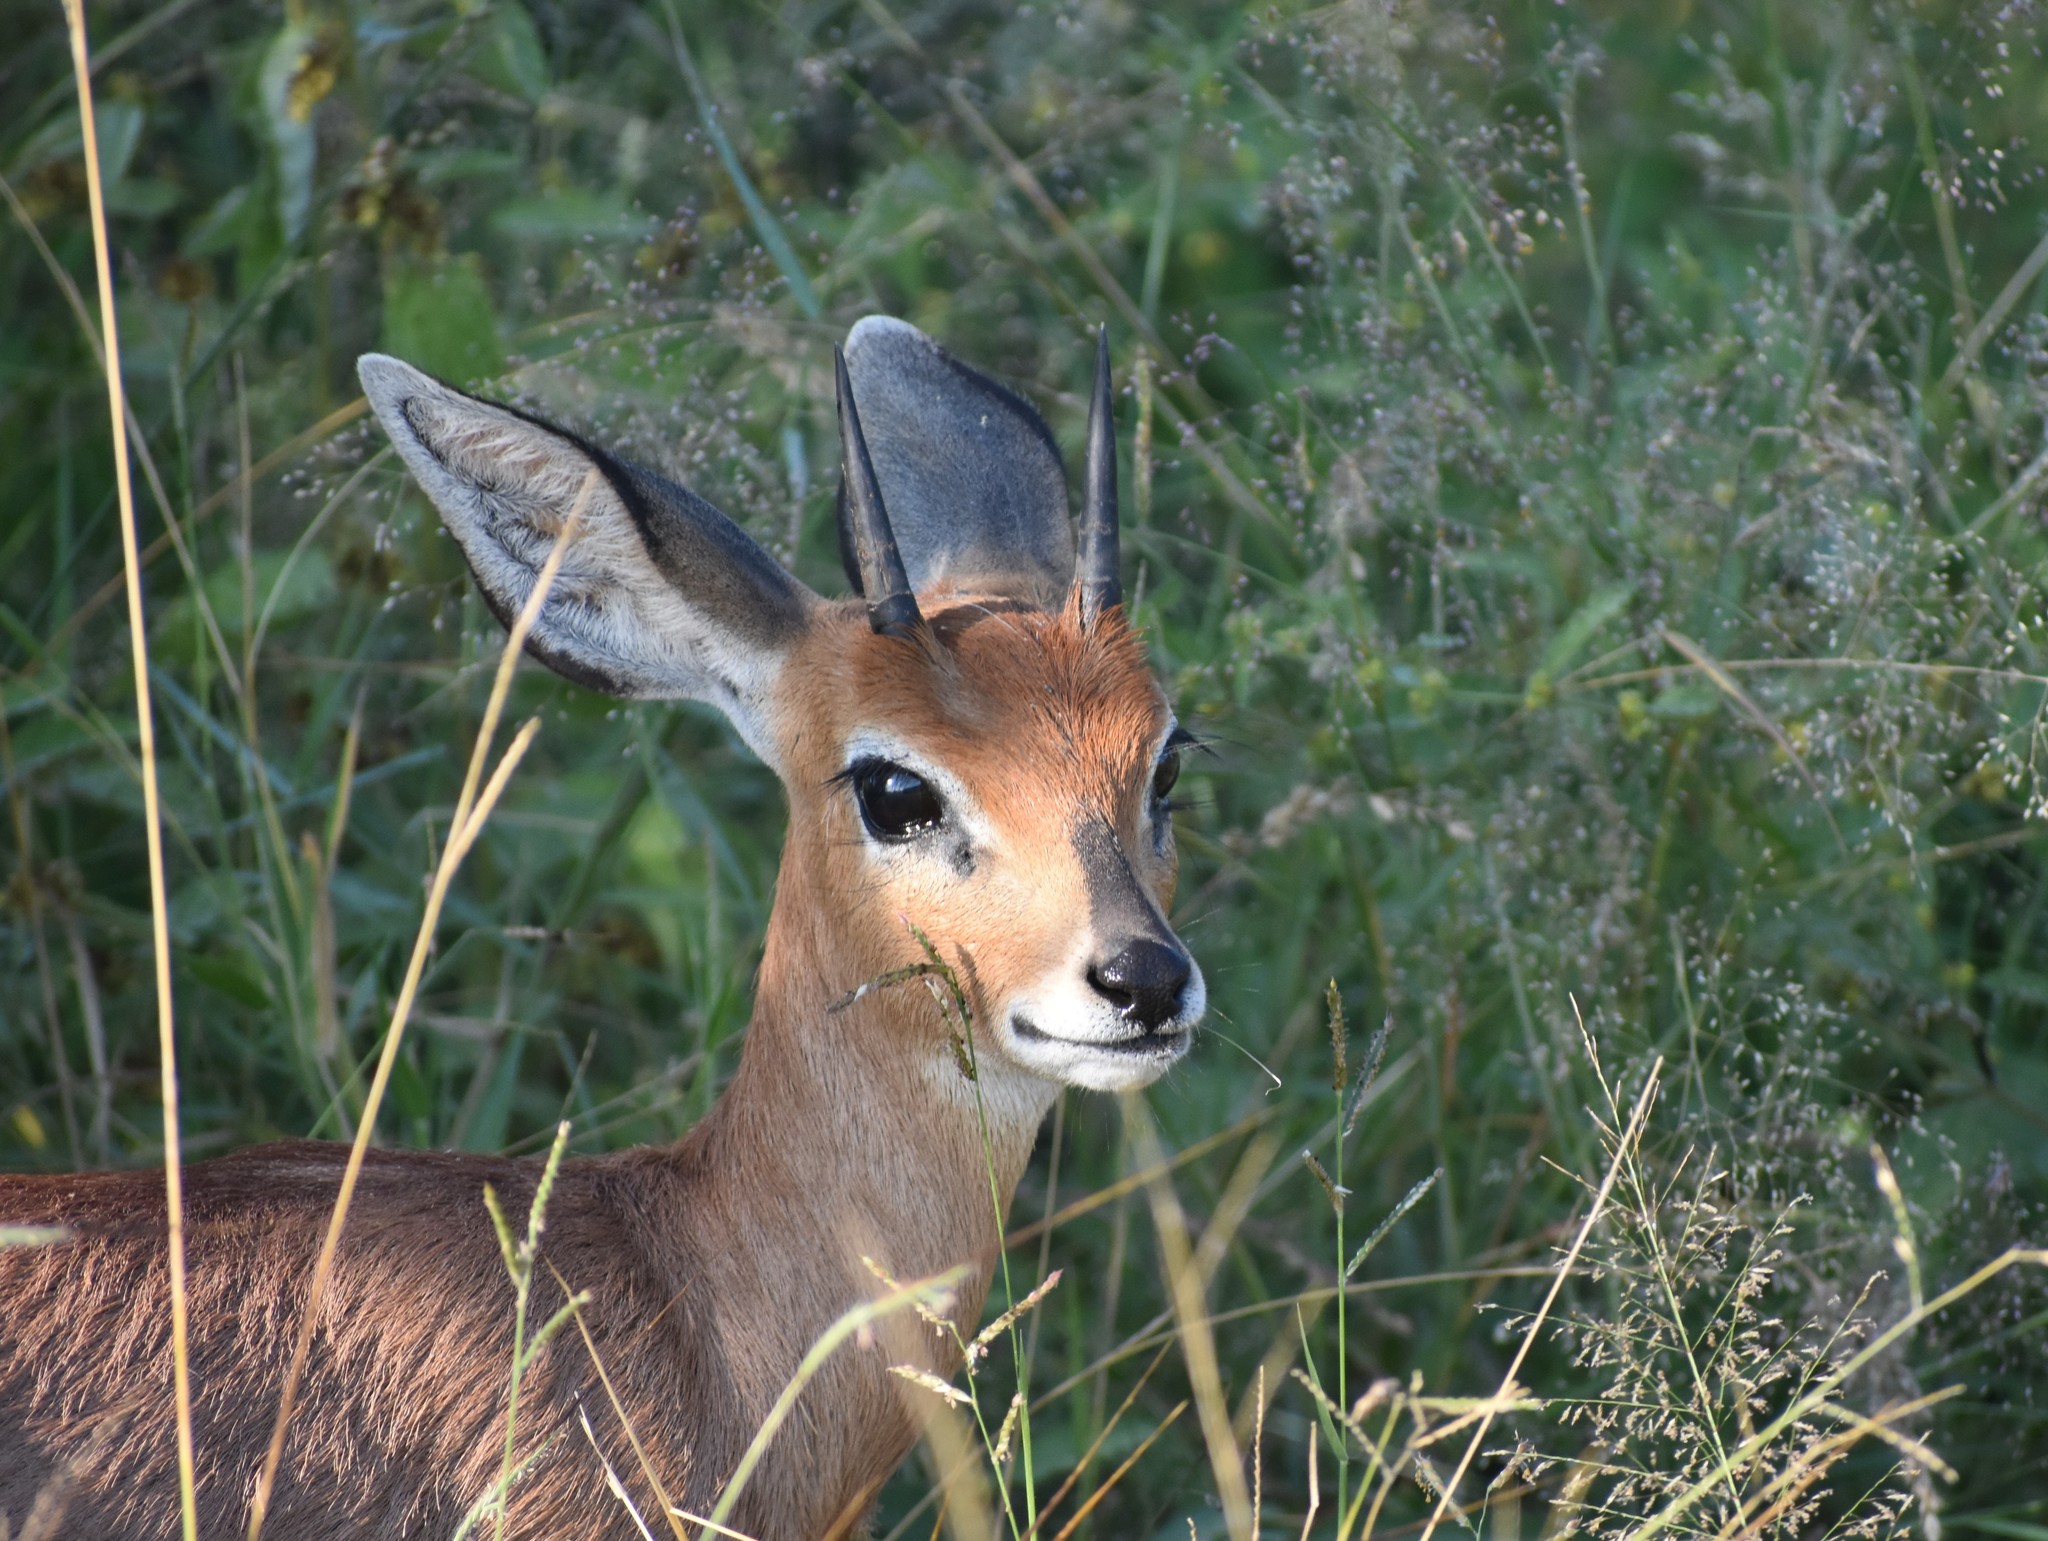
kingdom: Animalia
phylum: Chordata
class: Mammalia
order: Artiodactyla
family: Bovidae
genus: Raphicerus
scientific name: Raphicerus campestris
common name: Steenbok
